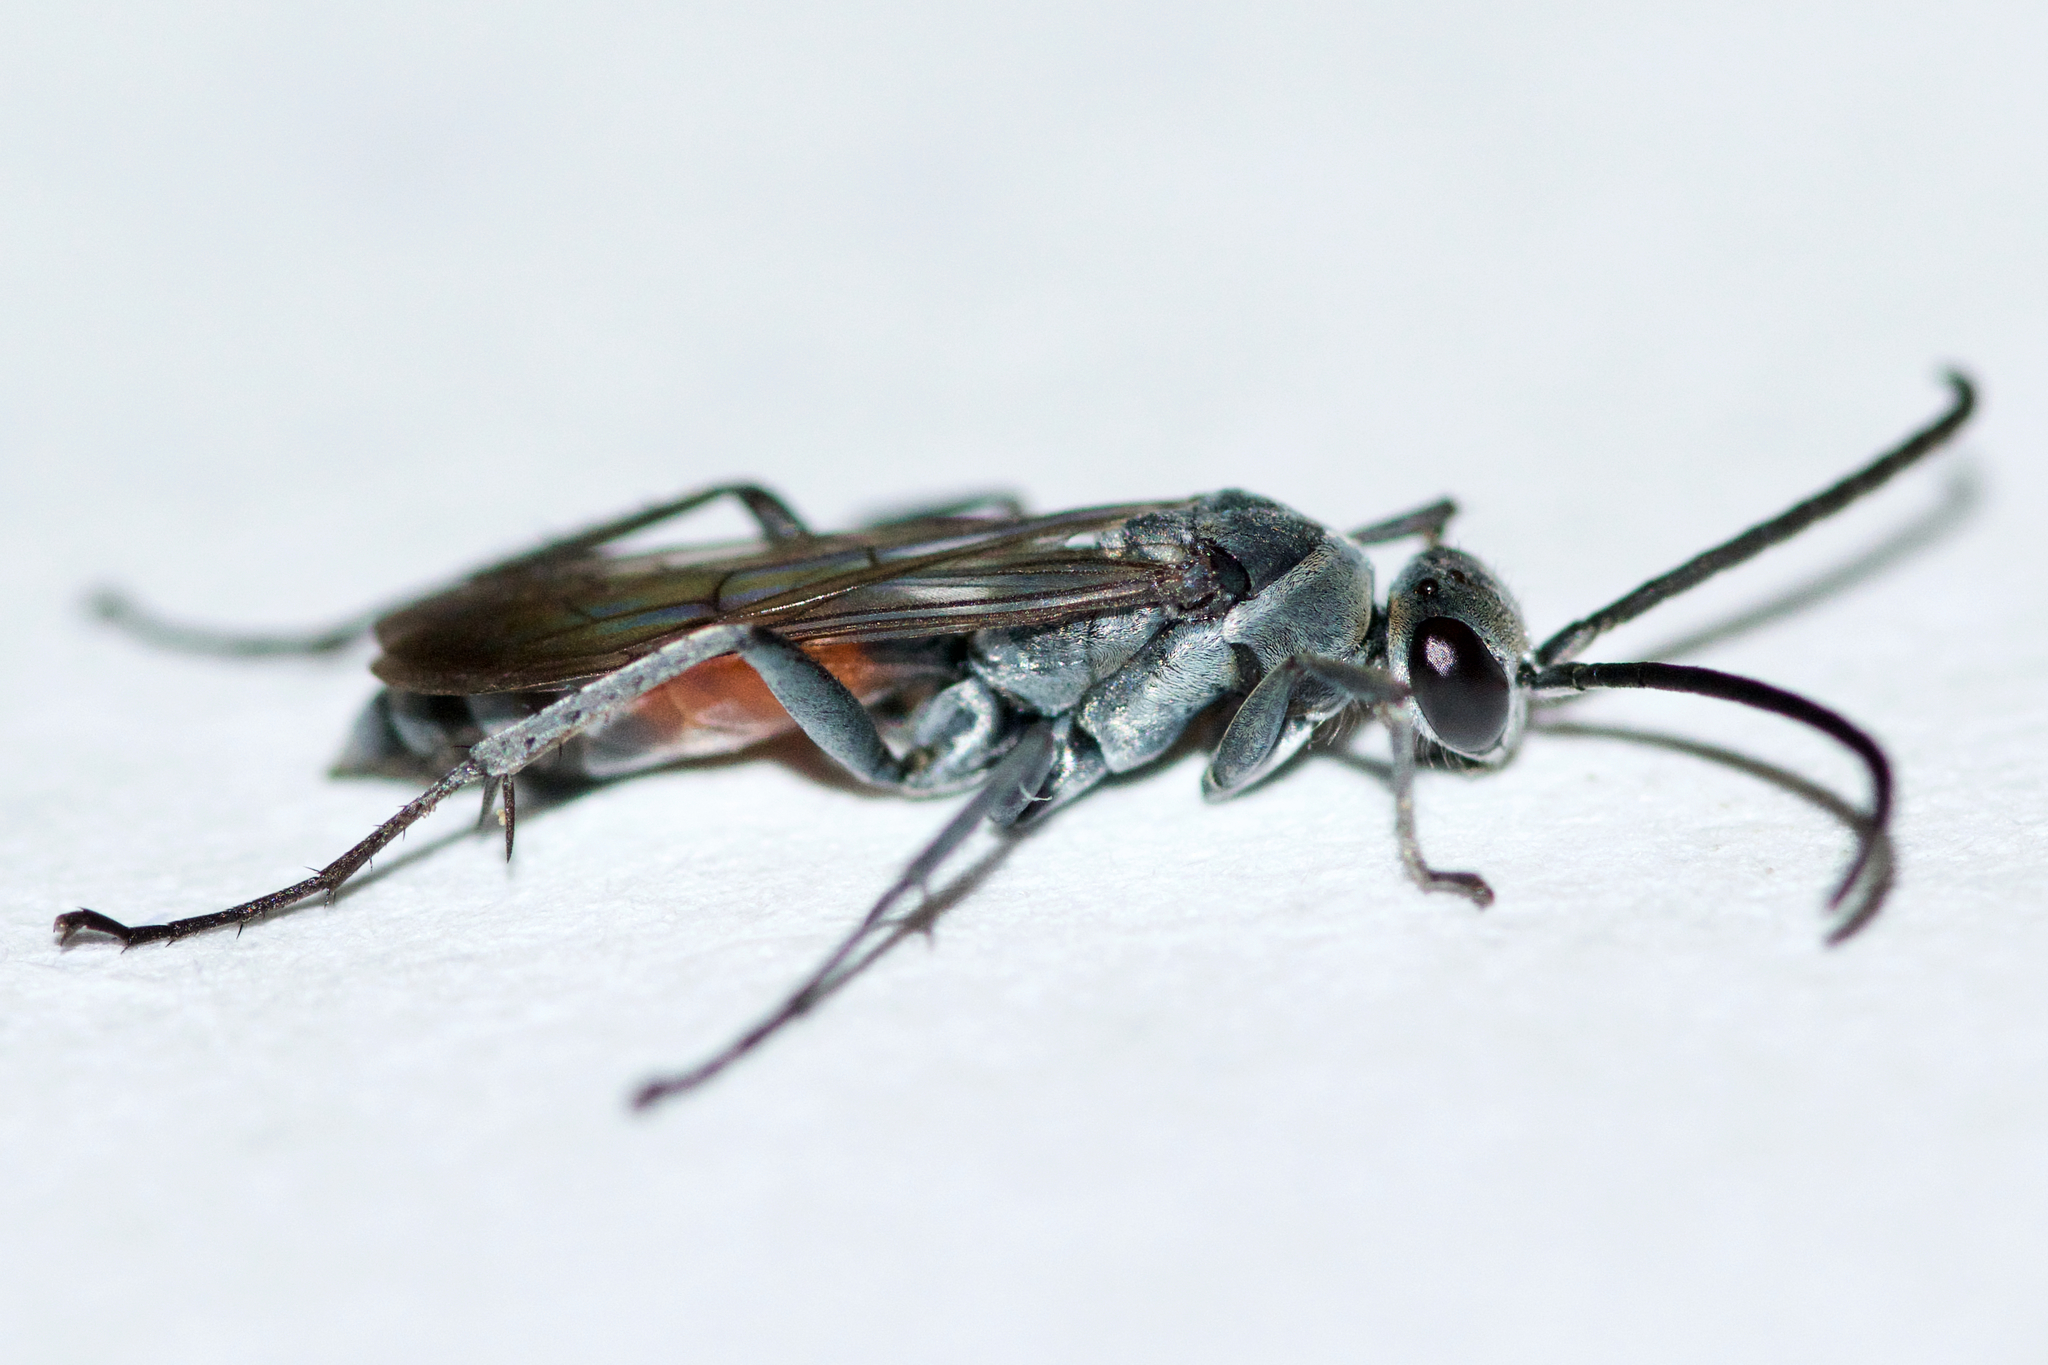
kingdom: Animalia
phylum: Arthropoda
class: Insecta
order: Hymenoptera
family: Pompilidae
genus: Anoplius
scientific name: Anoplius apiculatus
